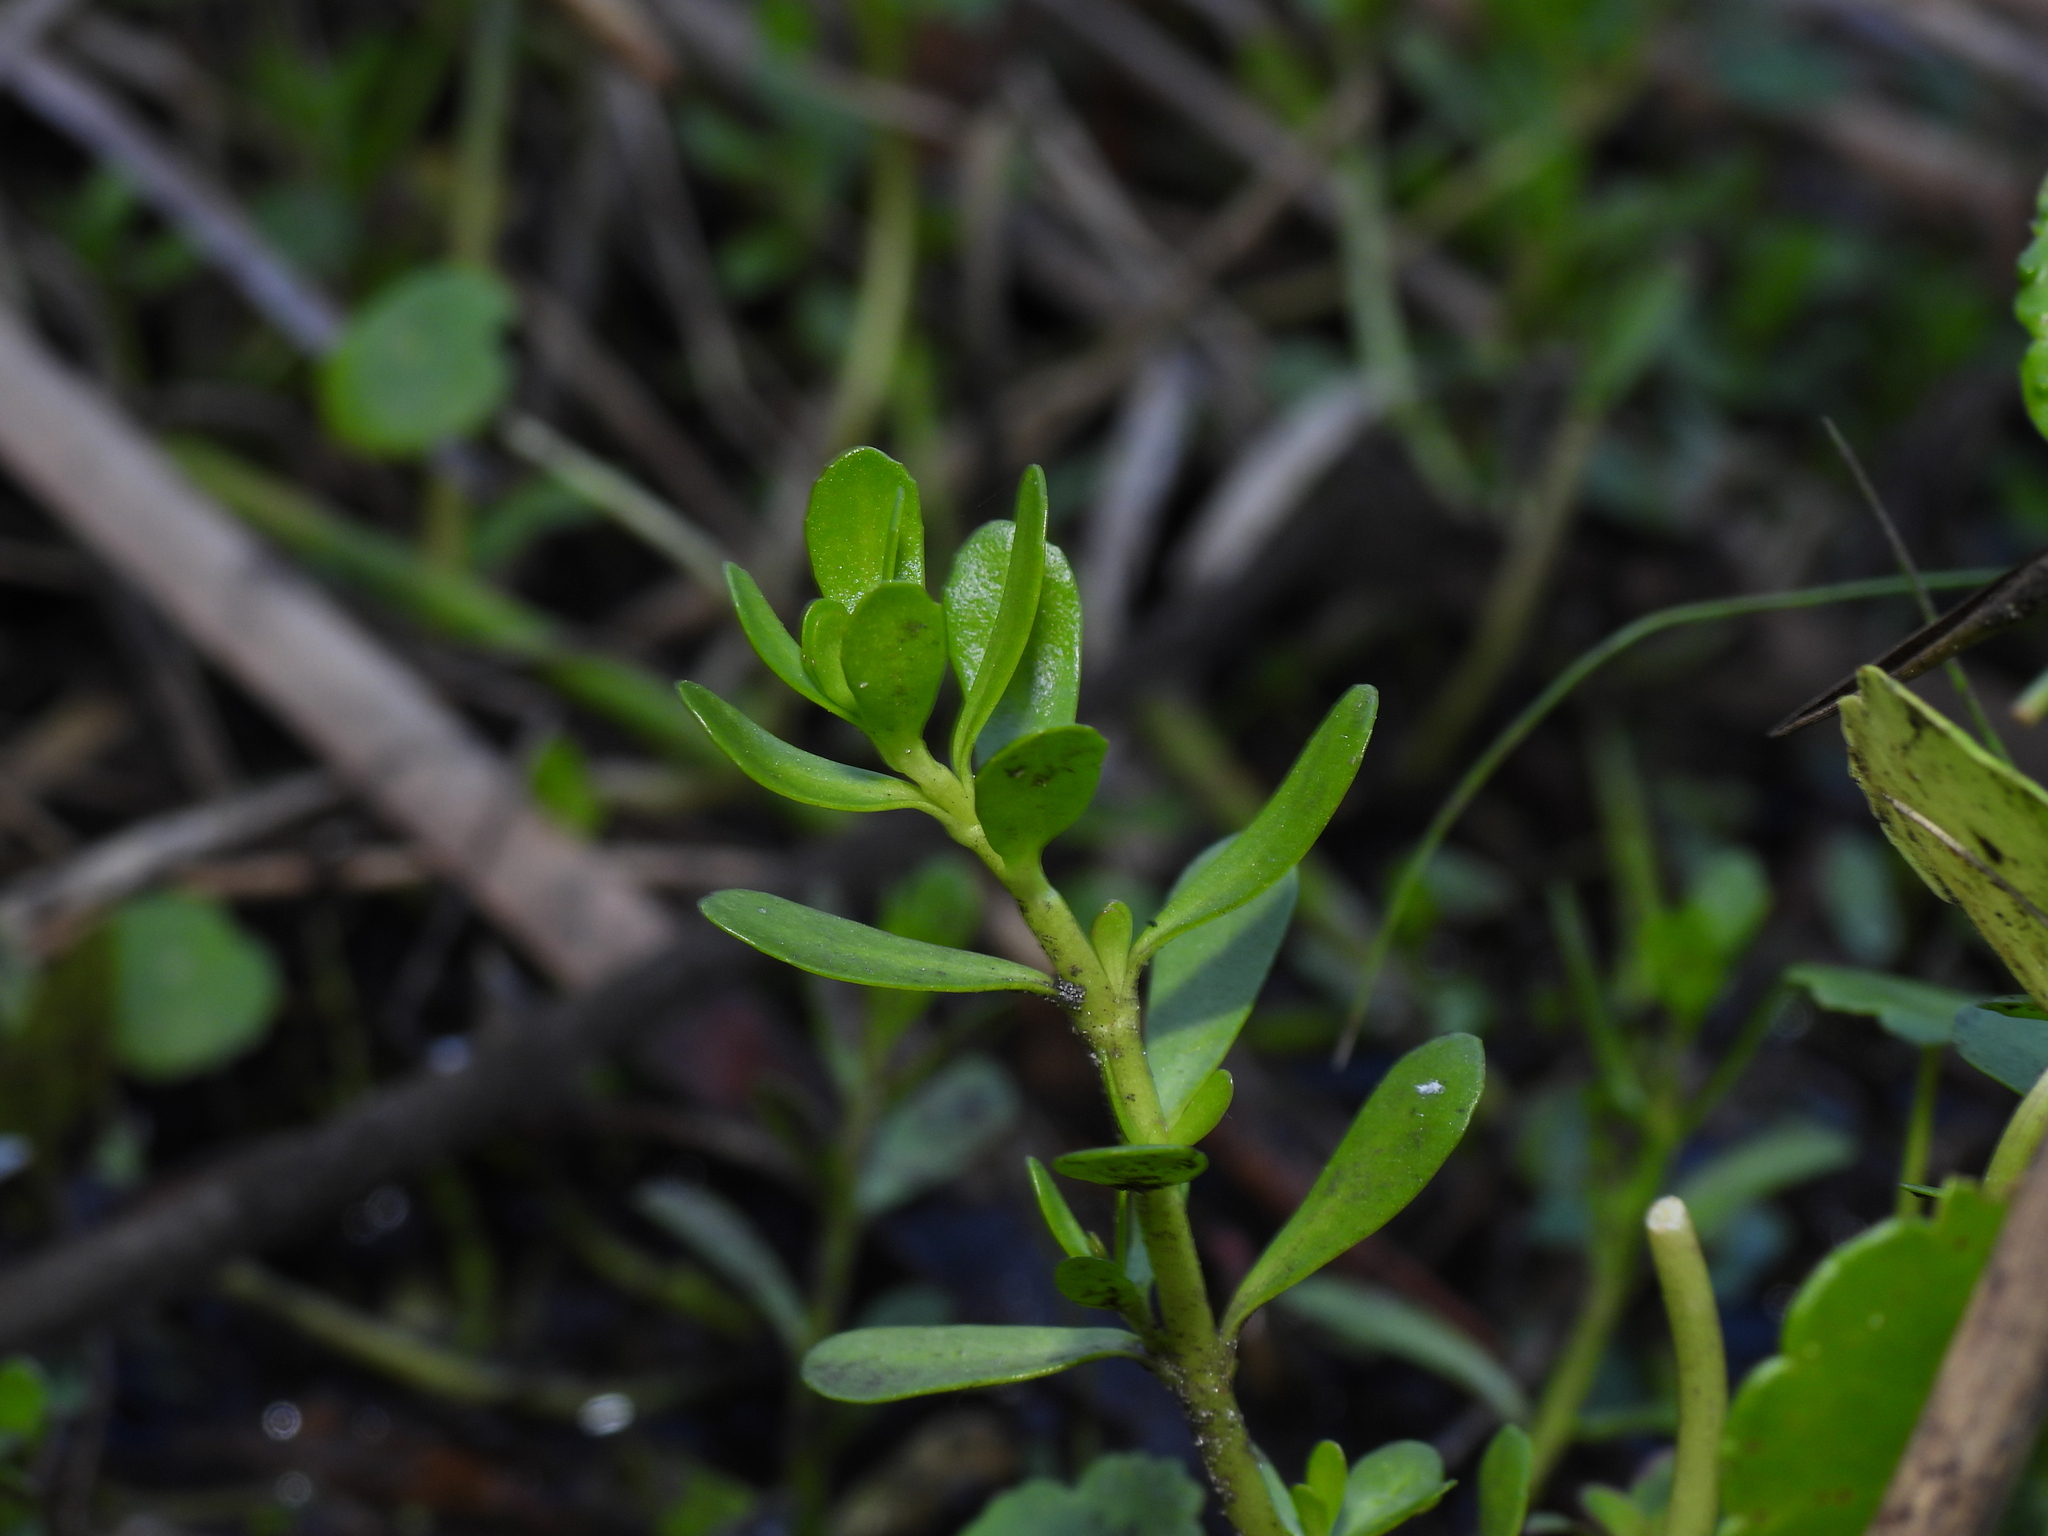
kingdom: Plantae
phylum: Tracheophyta
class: Magnoliopsida
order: Lamiales
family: Plantaginaceae
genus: Bacopa
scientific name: Bacopa monnieri
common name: Indian-pennywort
